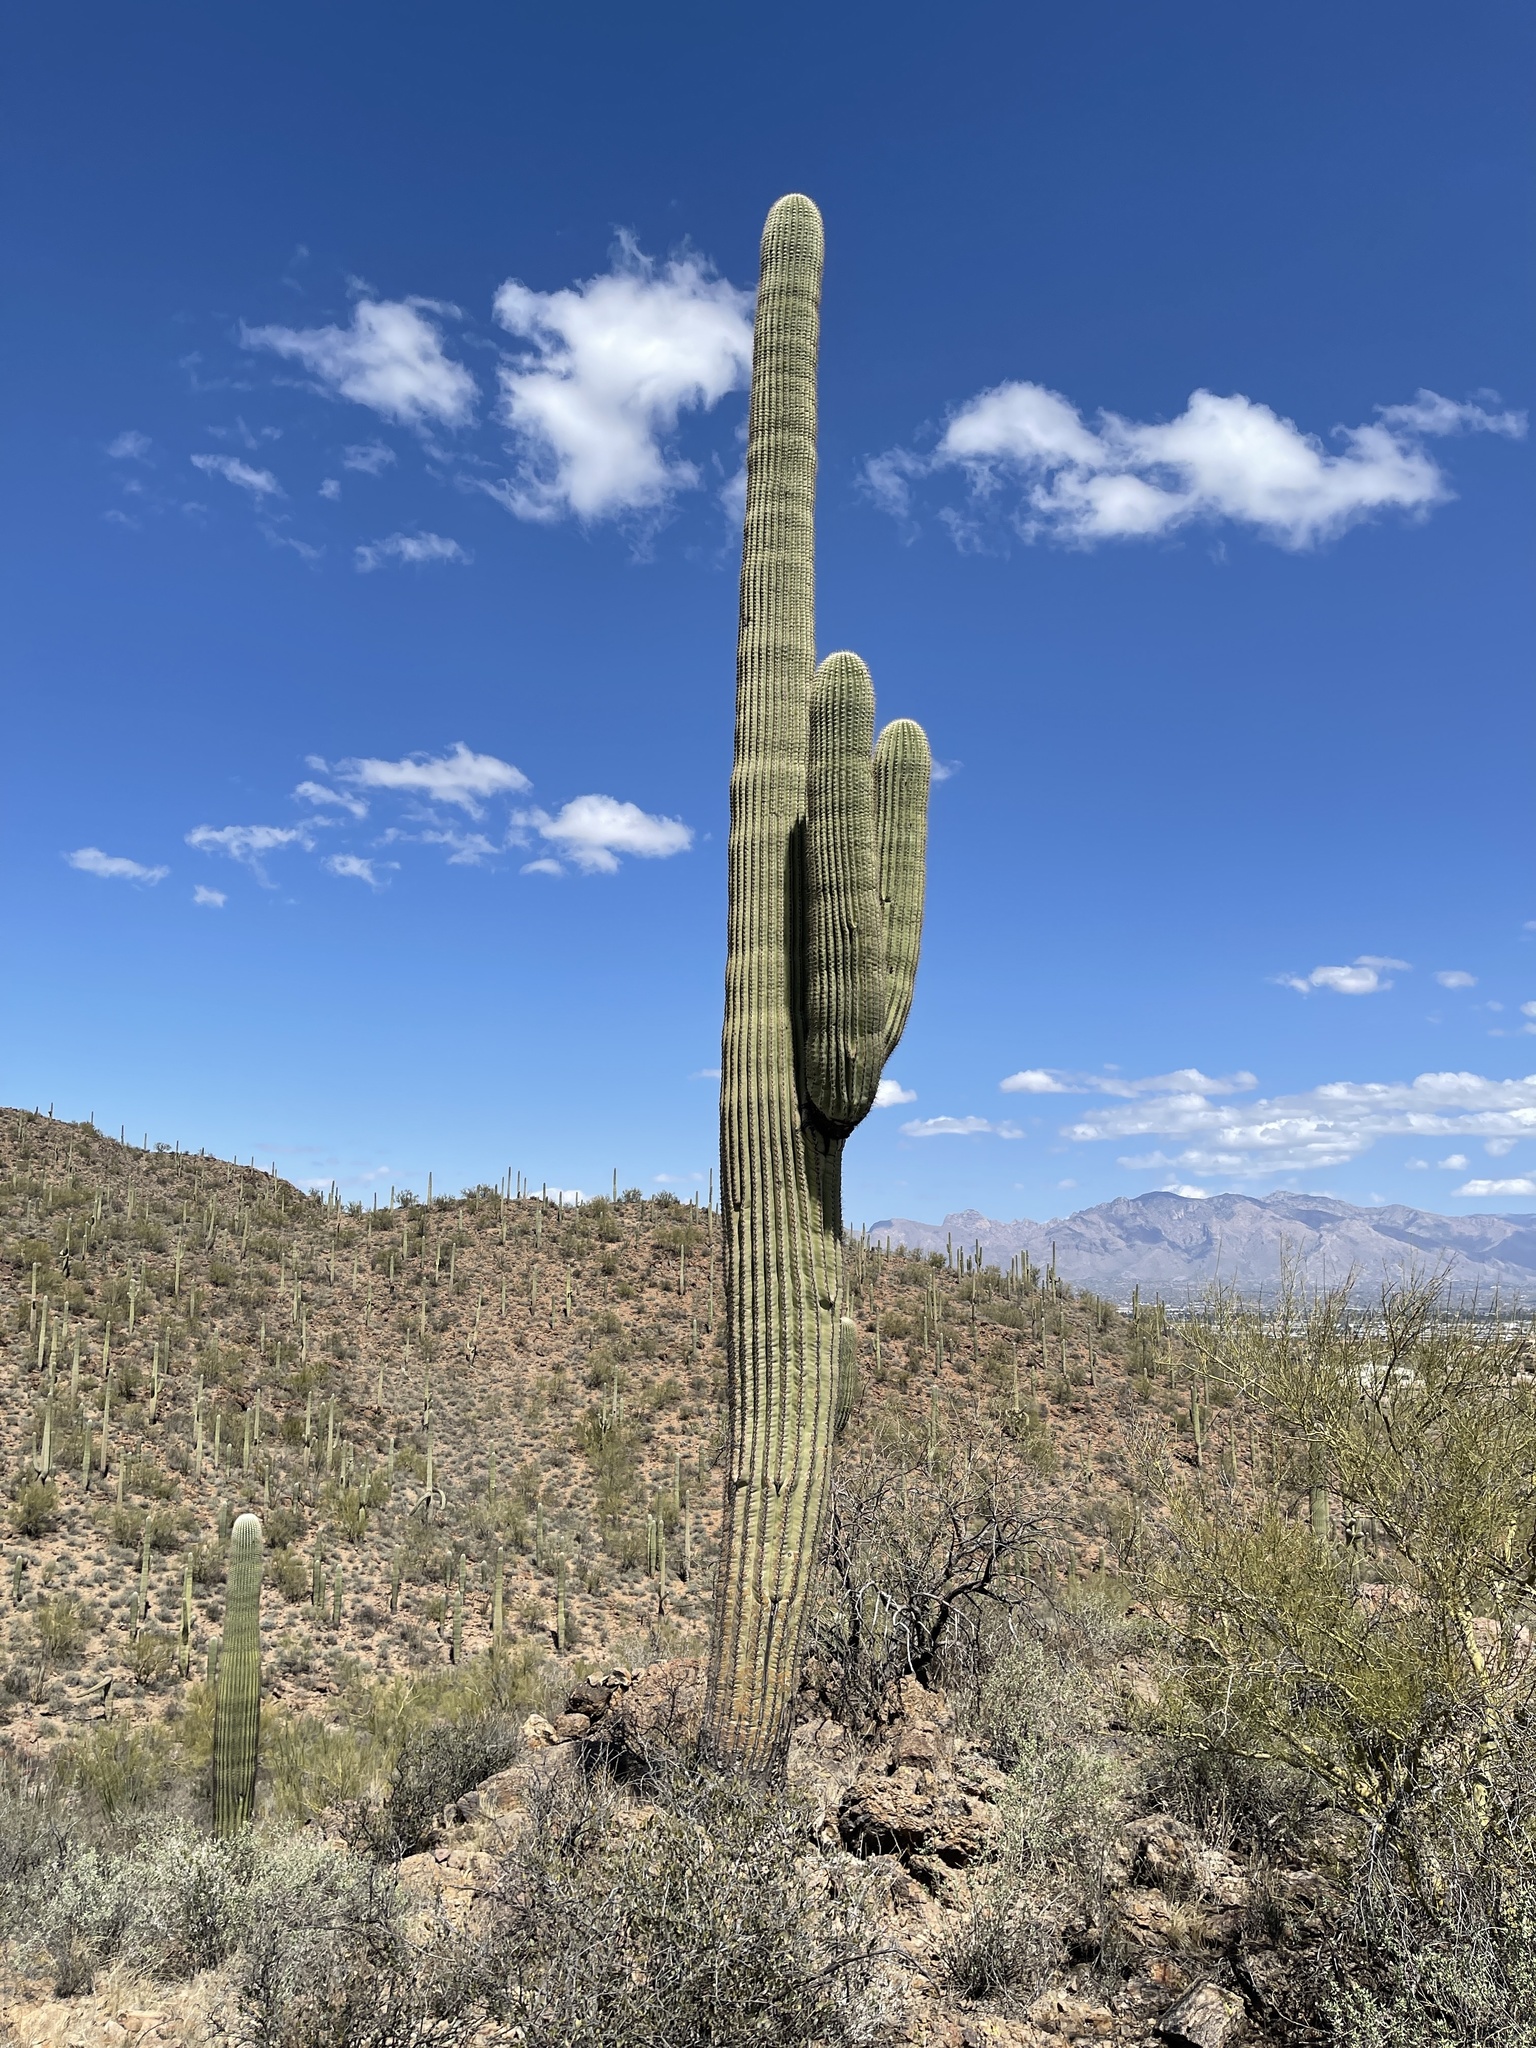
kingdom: Plantae
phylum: Tracheophyta
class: Magnoliopsida
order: Caryophyllales
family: Cactaceae
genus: Carnegiea
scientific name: Carnegiea gigantea
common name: Saguaro
